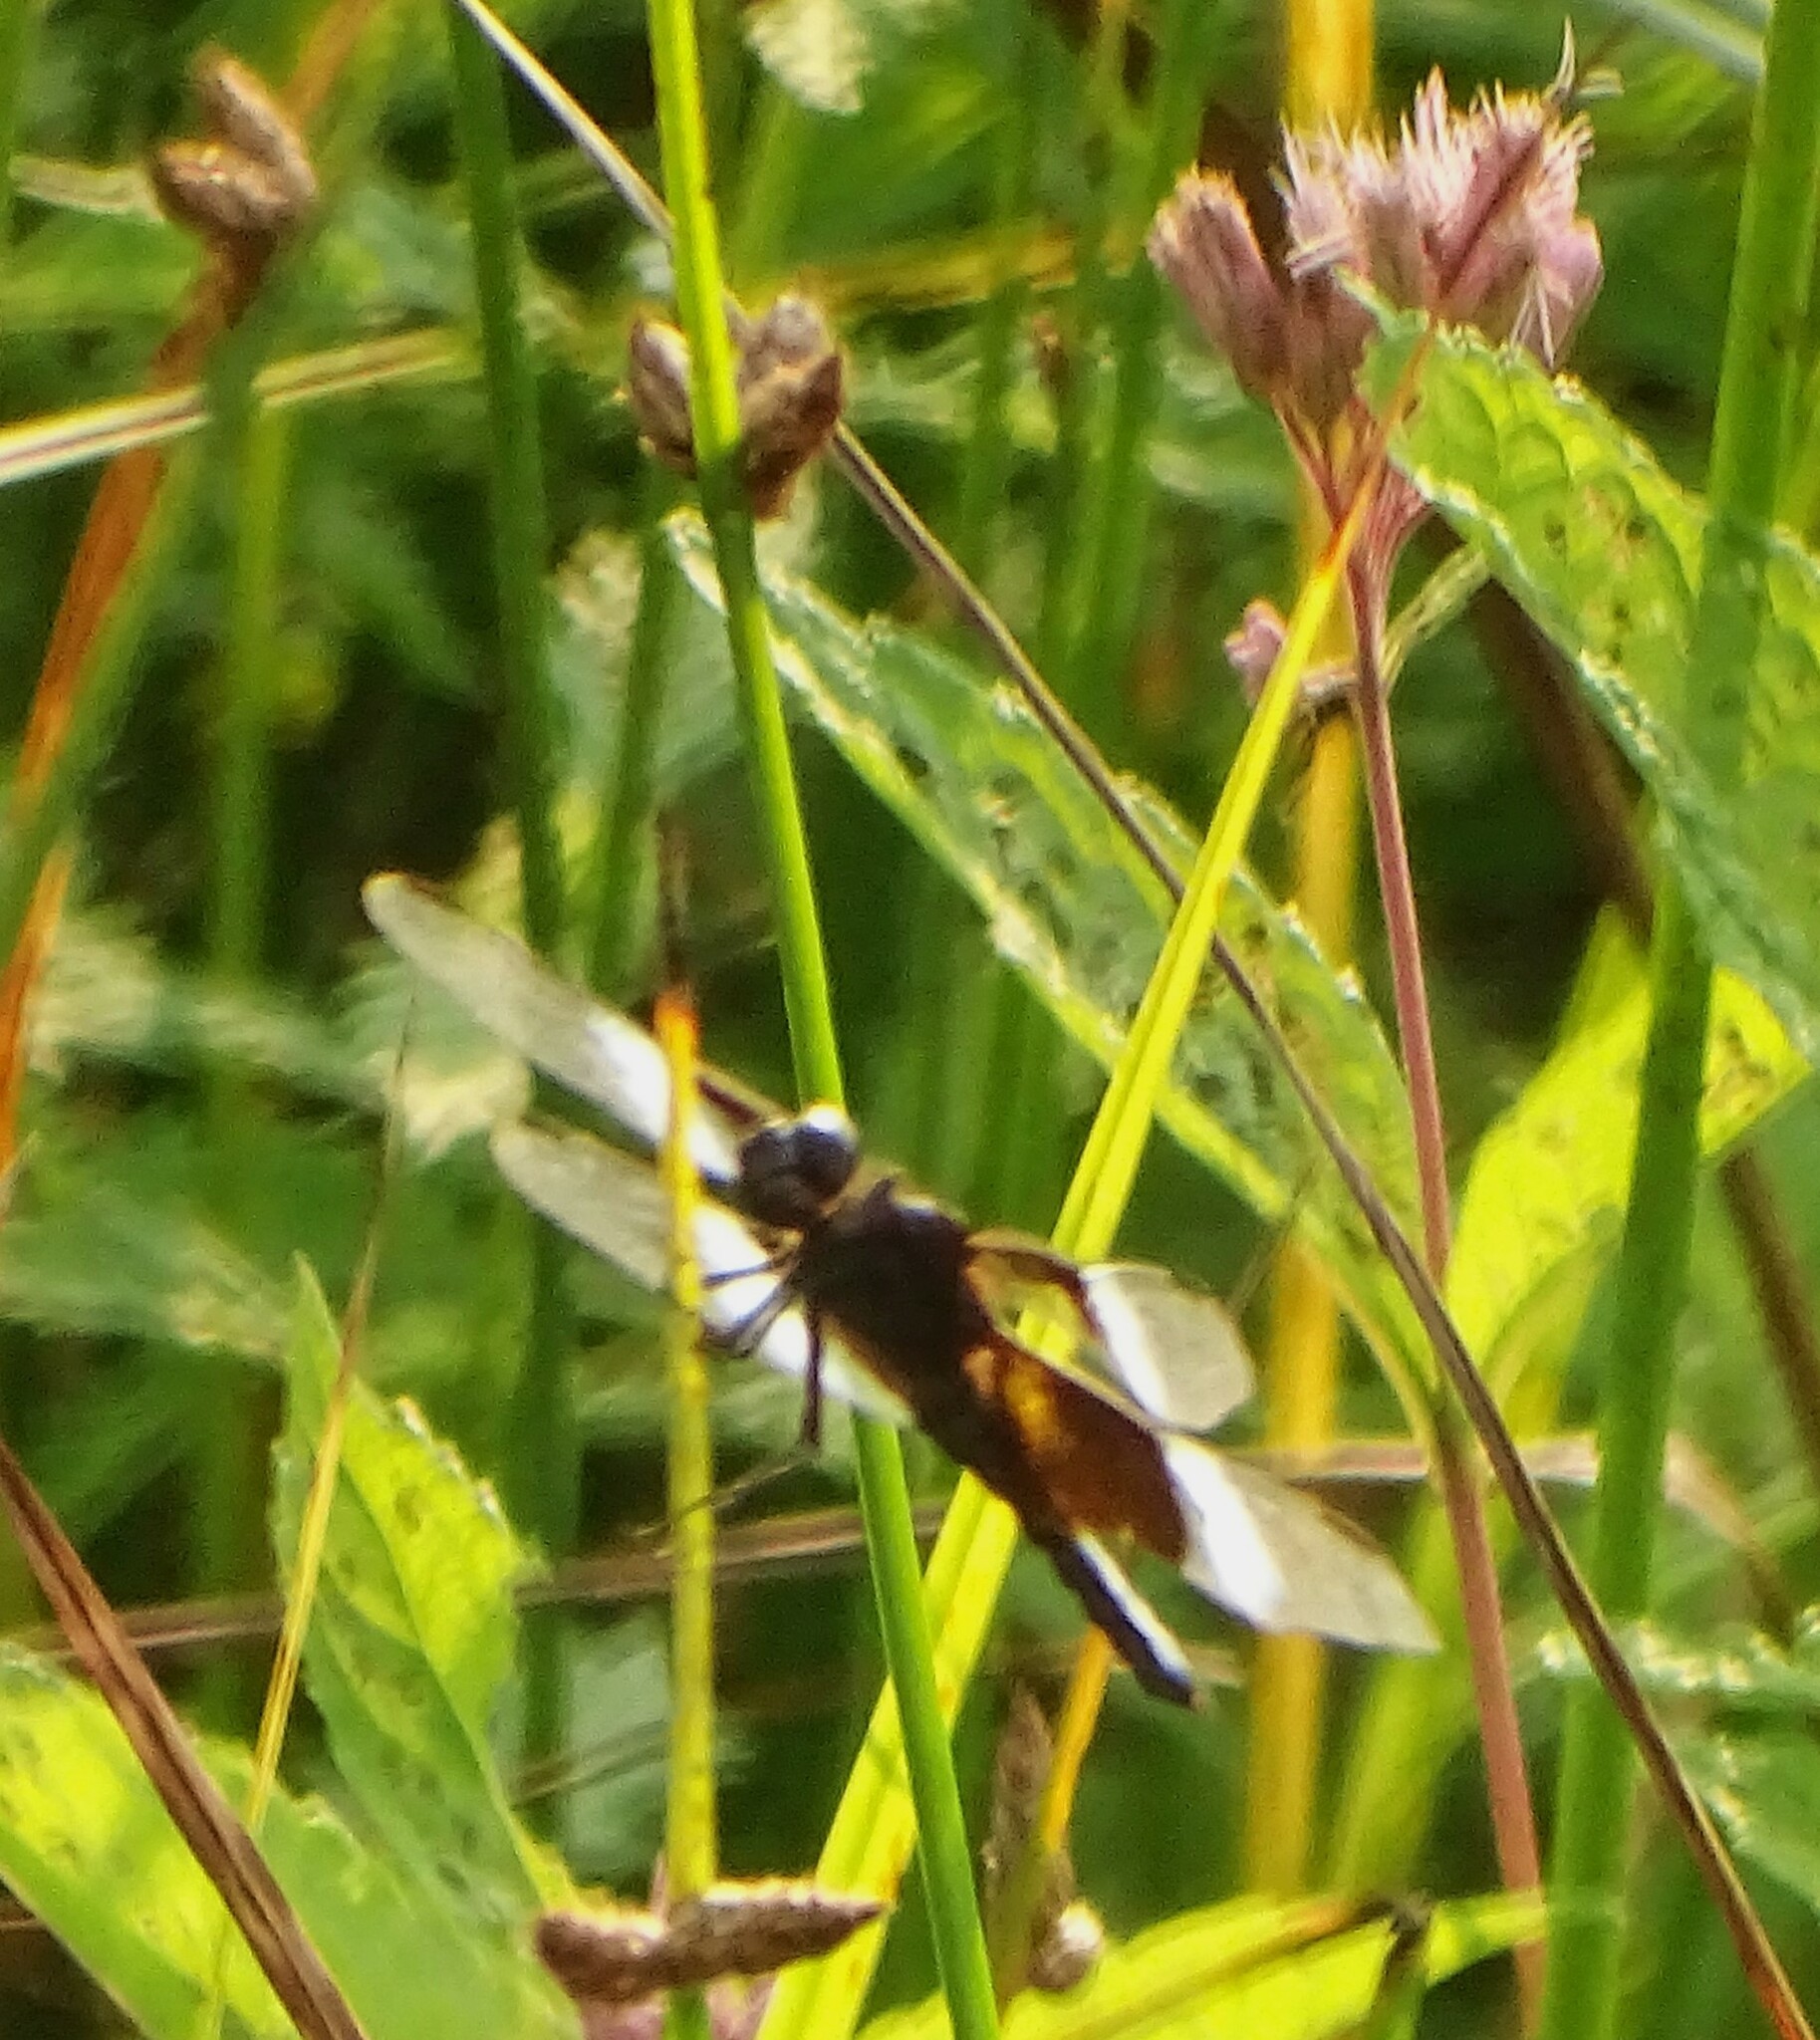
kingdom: Animalia
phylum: Arthropoda
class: Insecta
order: Odonata
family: Libellulidae
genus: Libellula
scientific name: Libellula luctuosa
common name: Widow skimmer
